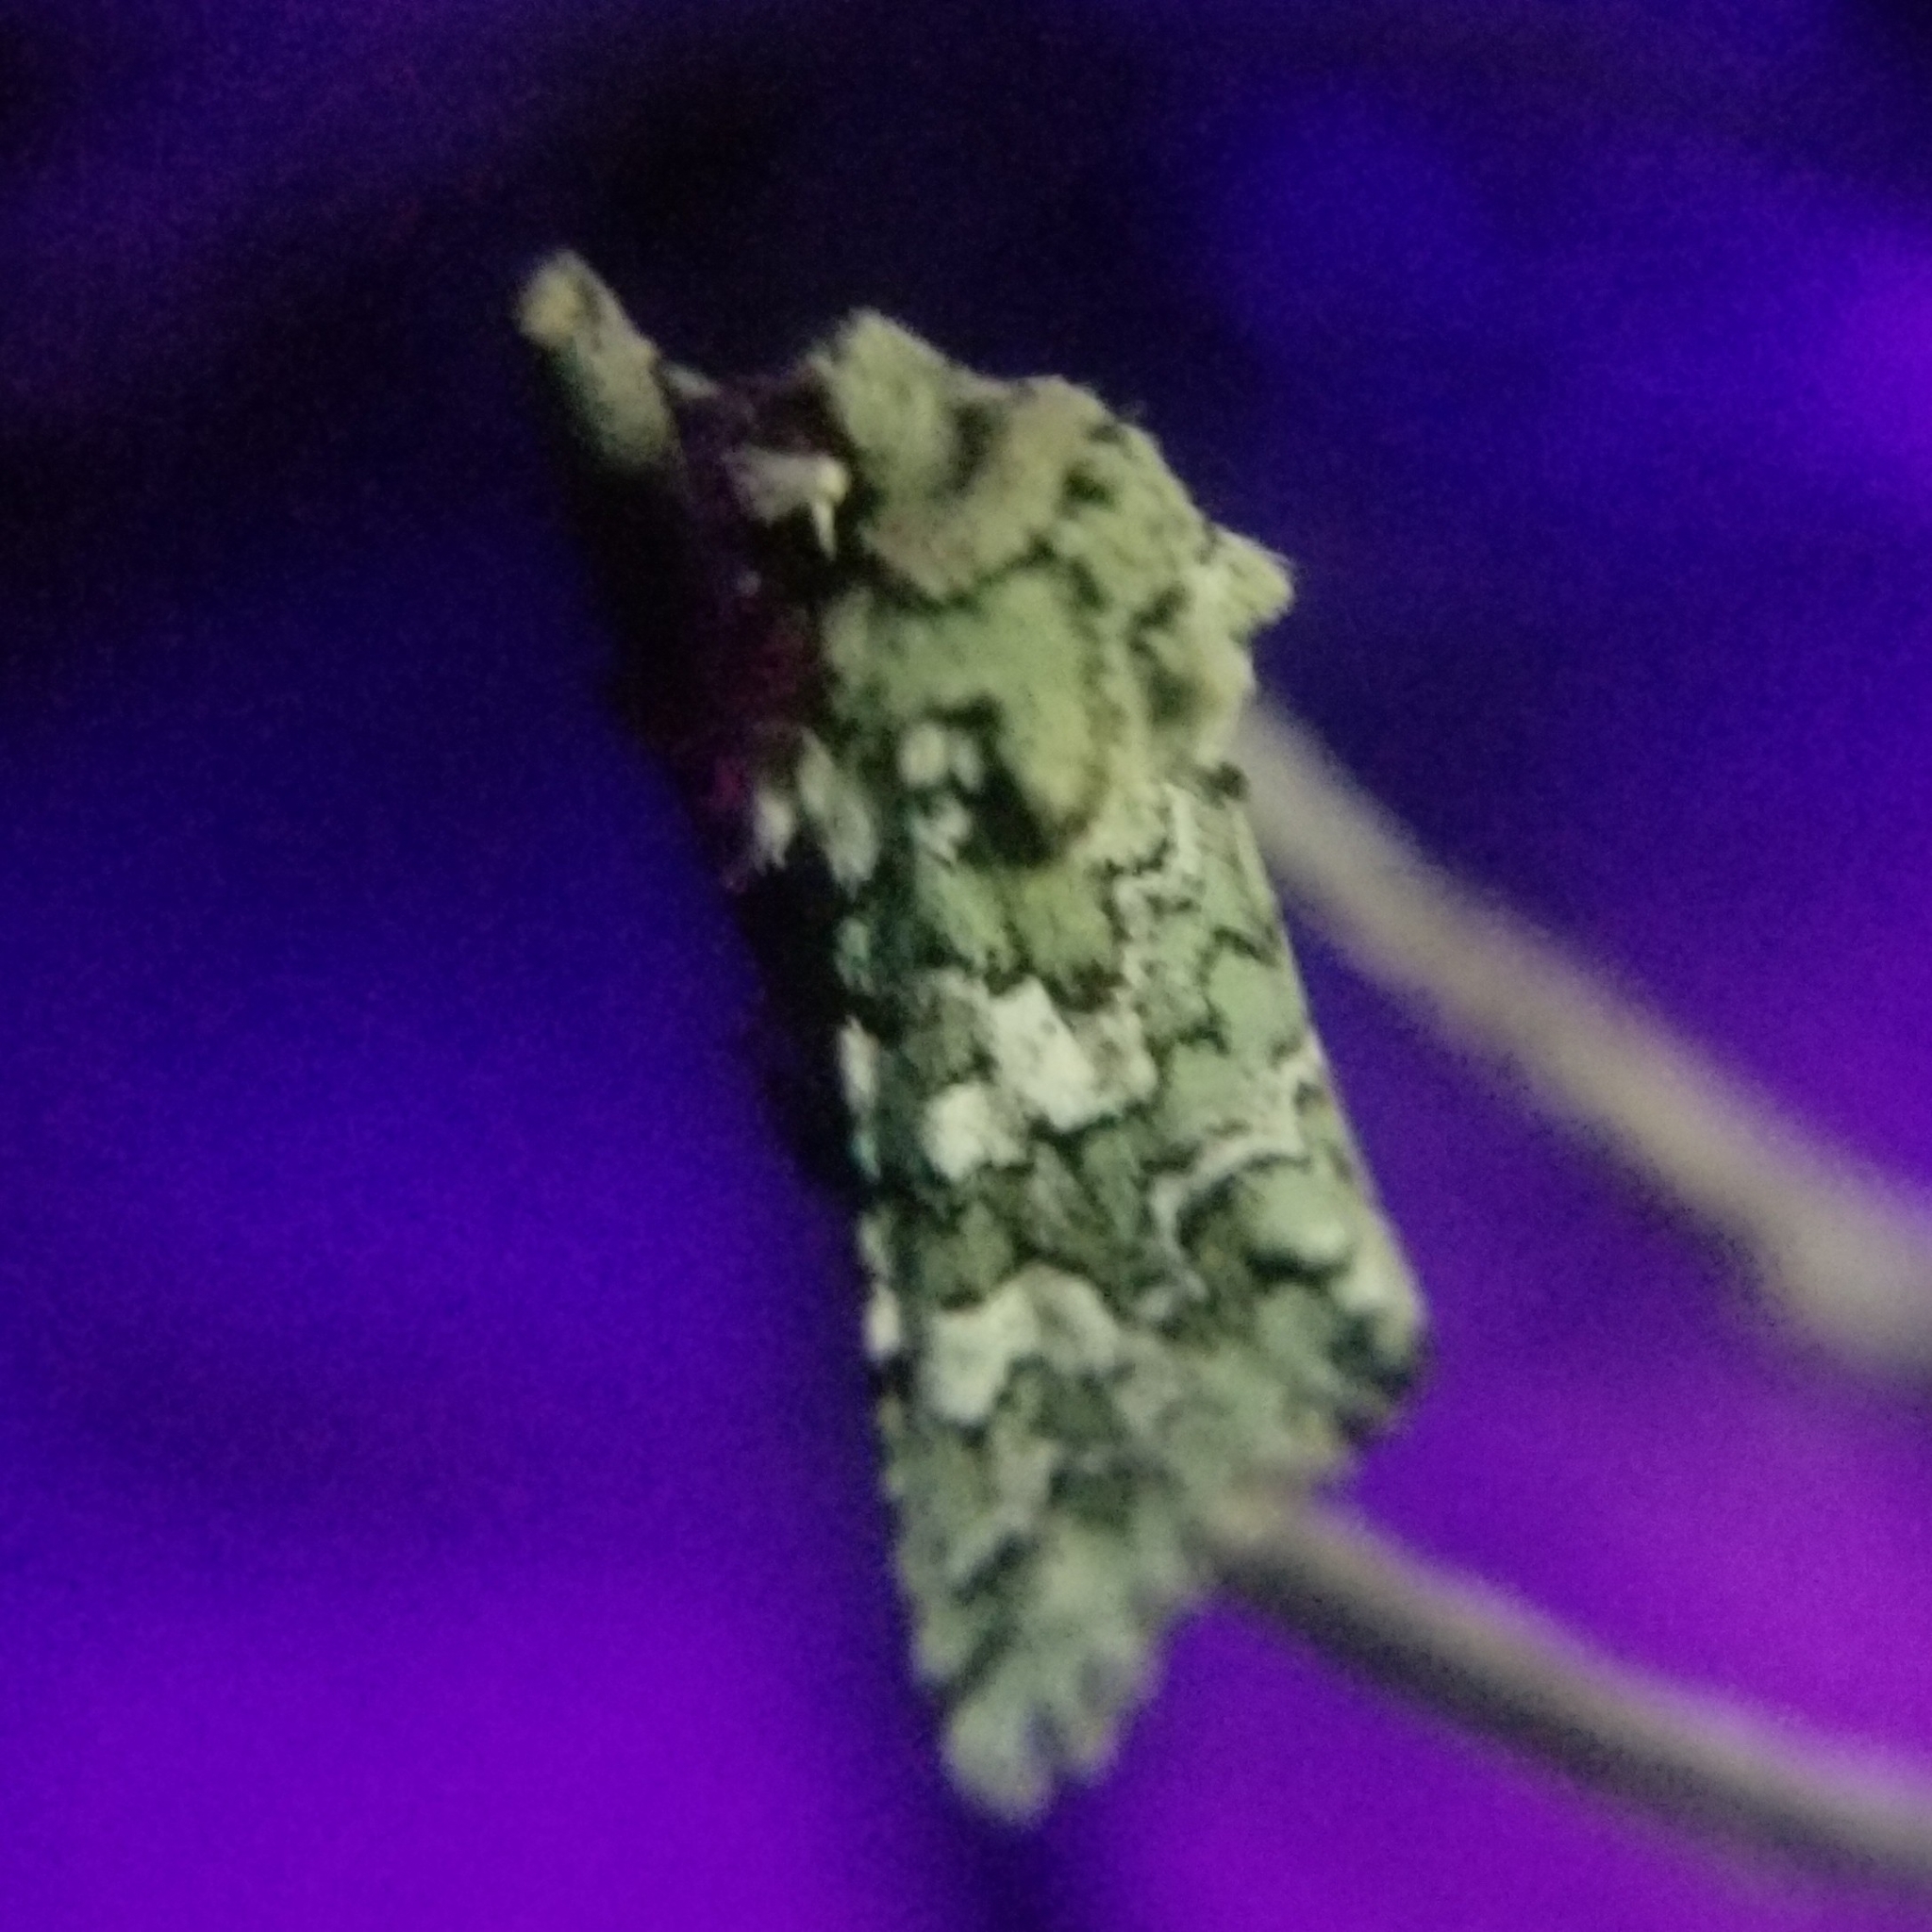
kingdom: Animalia
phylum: Arthropoda
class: Insecta
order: Lepidoptera
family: Noctuidae
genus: Feralia
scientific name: Feralia februalis
